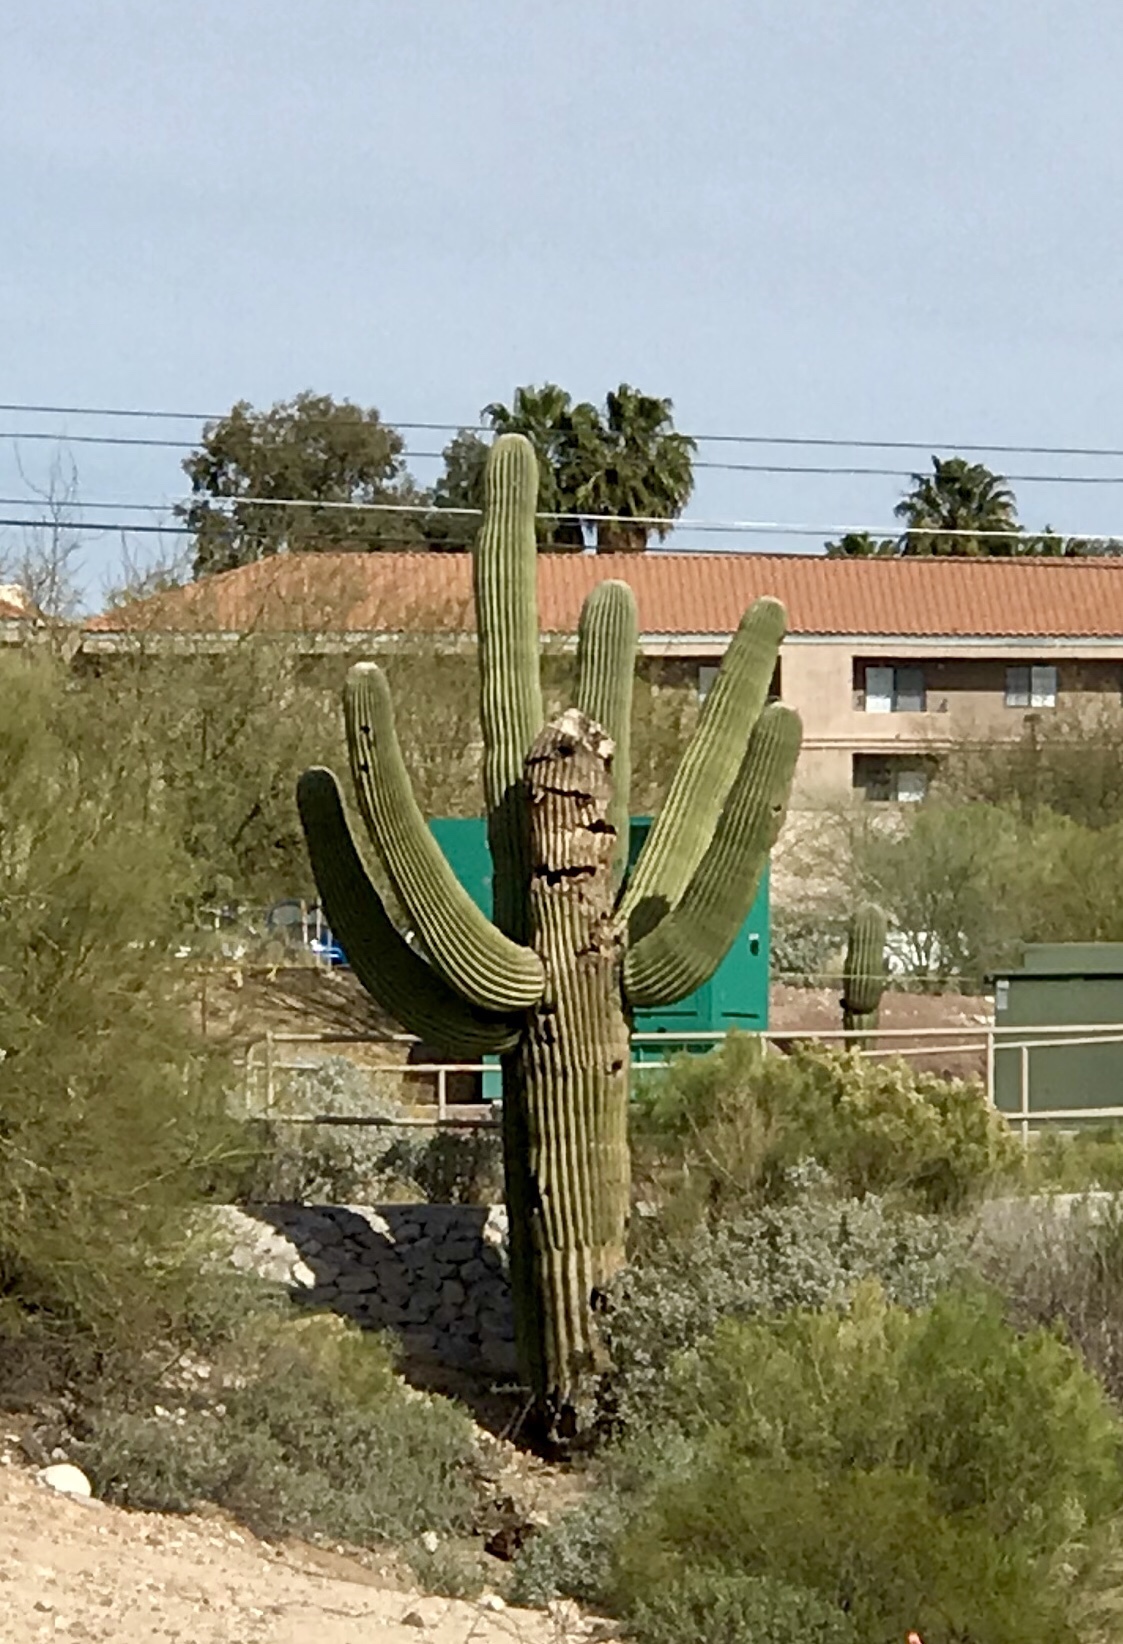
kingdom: Plantae
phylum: Tracheophyta
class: Magnoliopsida
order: Caryophyllales
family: Cactaceae
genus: Carnegiea
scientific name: Carnegiea gigantea
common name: Saguaro
